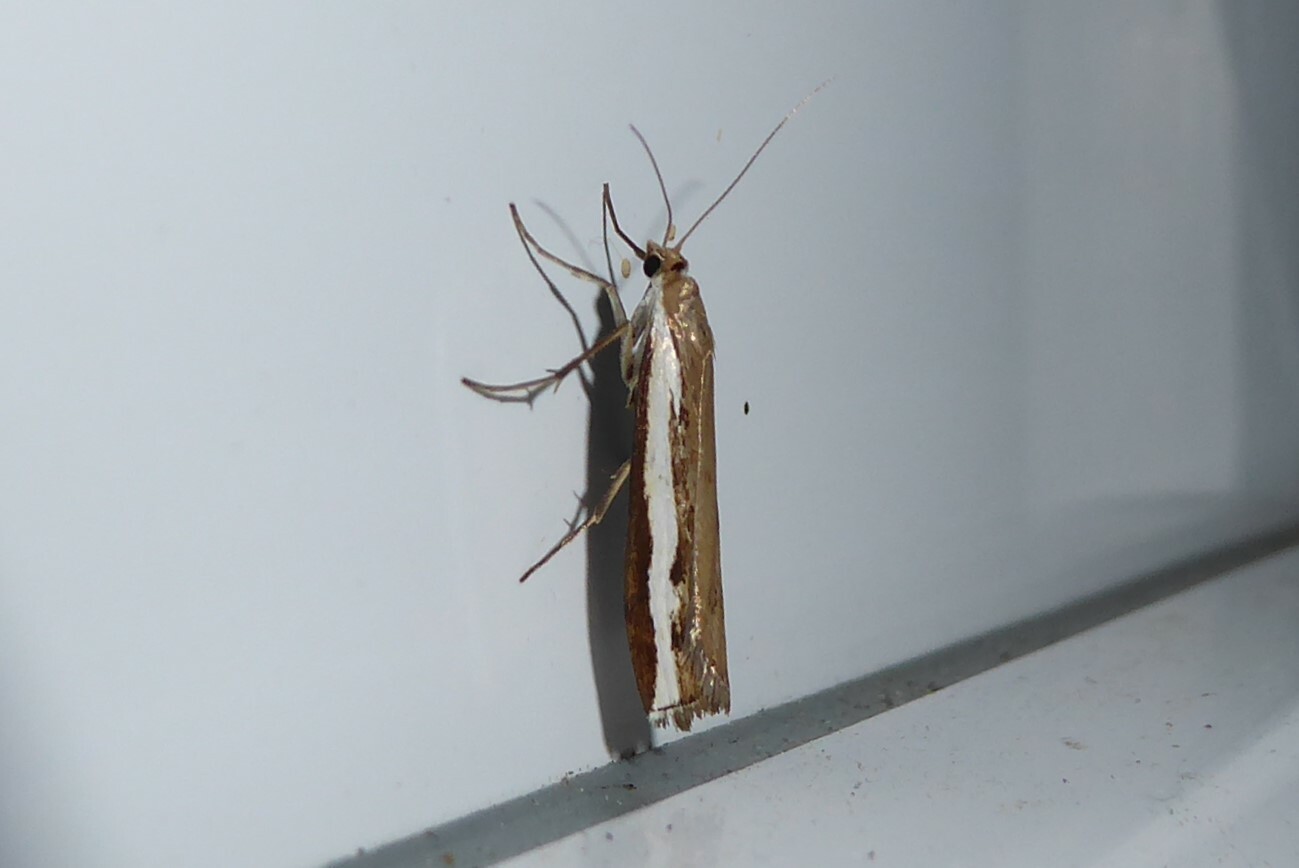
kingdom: Animalia
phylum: Arthropoda
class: Insecta
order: Lepidoptera
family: Crambidae
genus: Orocrambus
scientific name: Orocrambus flexuosellus
